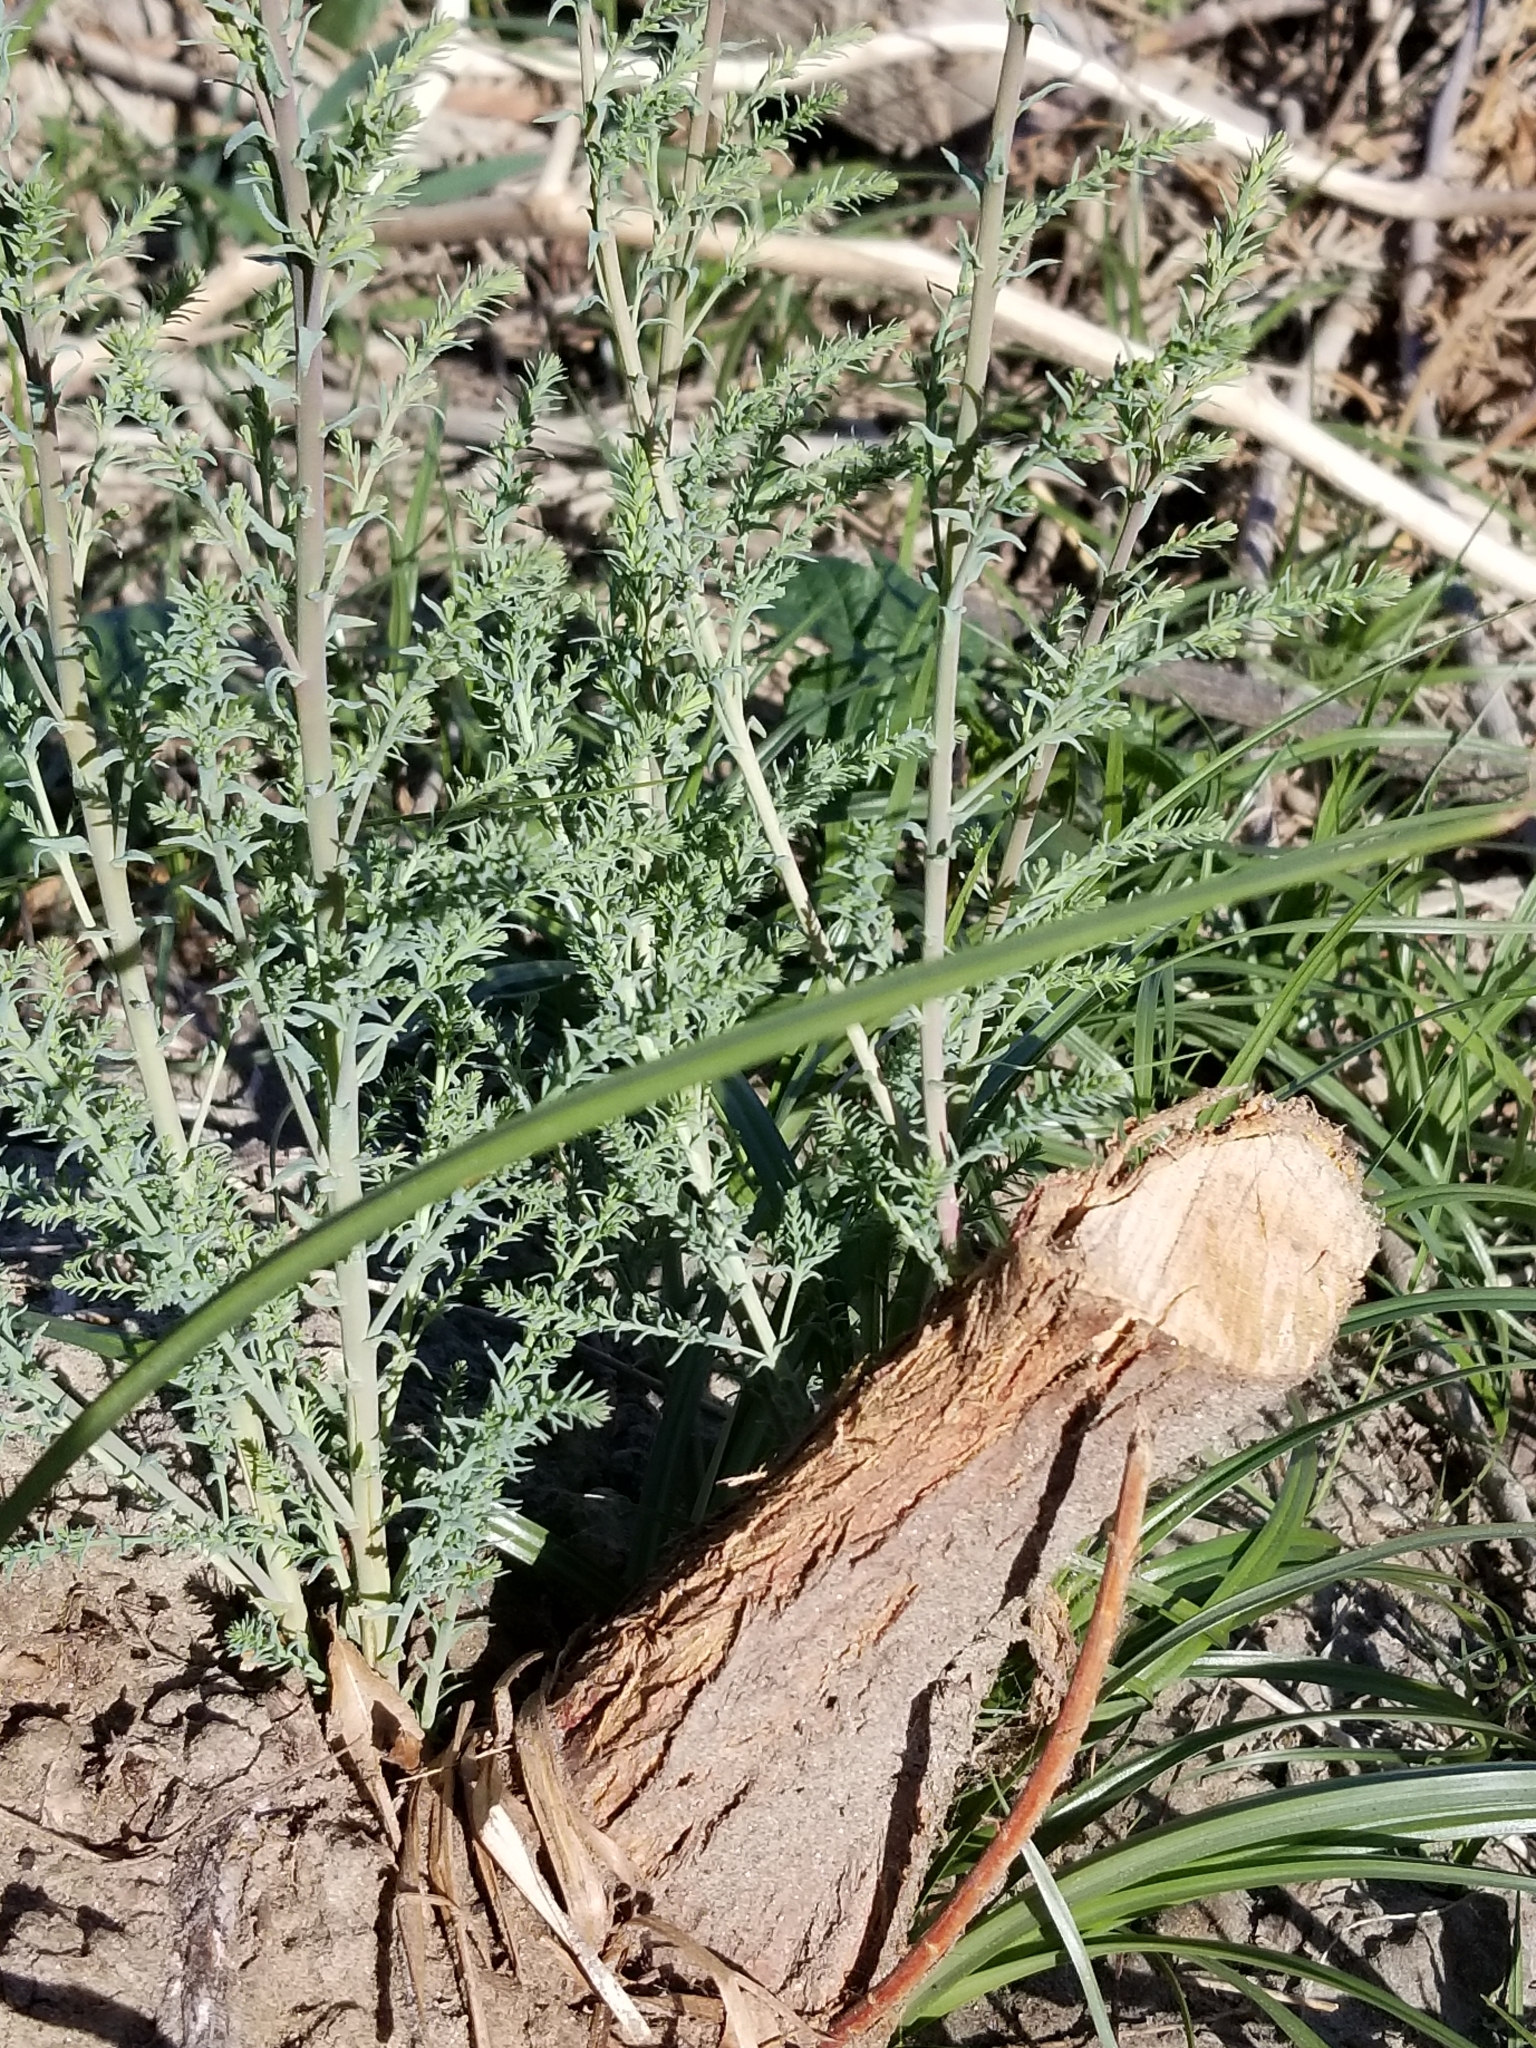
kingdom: Plantae
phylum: Tracheophyta
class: Magnoliopsida
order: Caryophyllales
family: Tamaricaceae
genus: Tamarix
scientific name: Tamarix ramosissima
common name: Pink tamarisk
